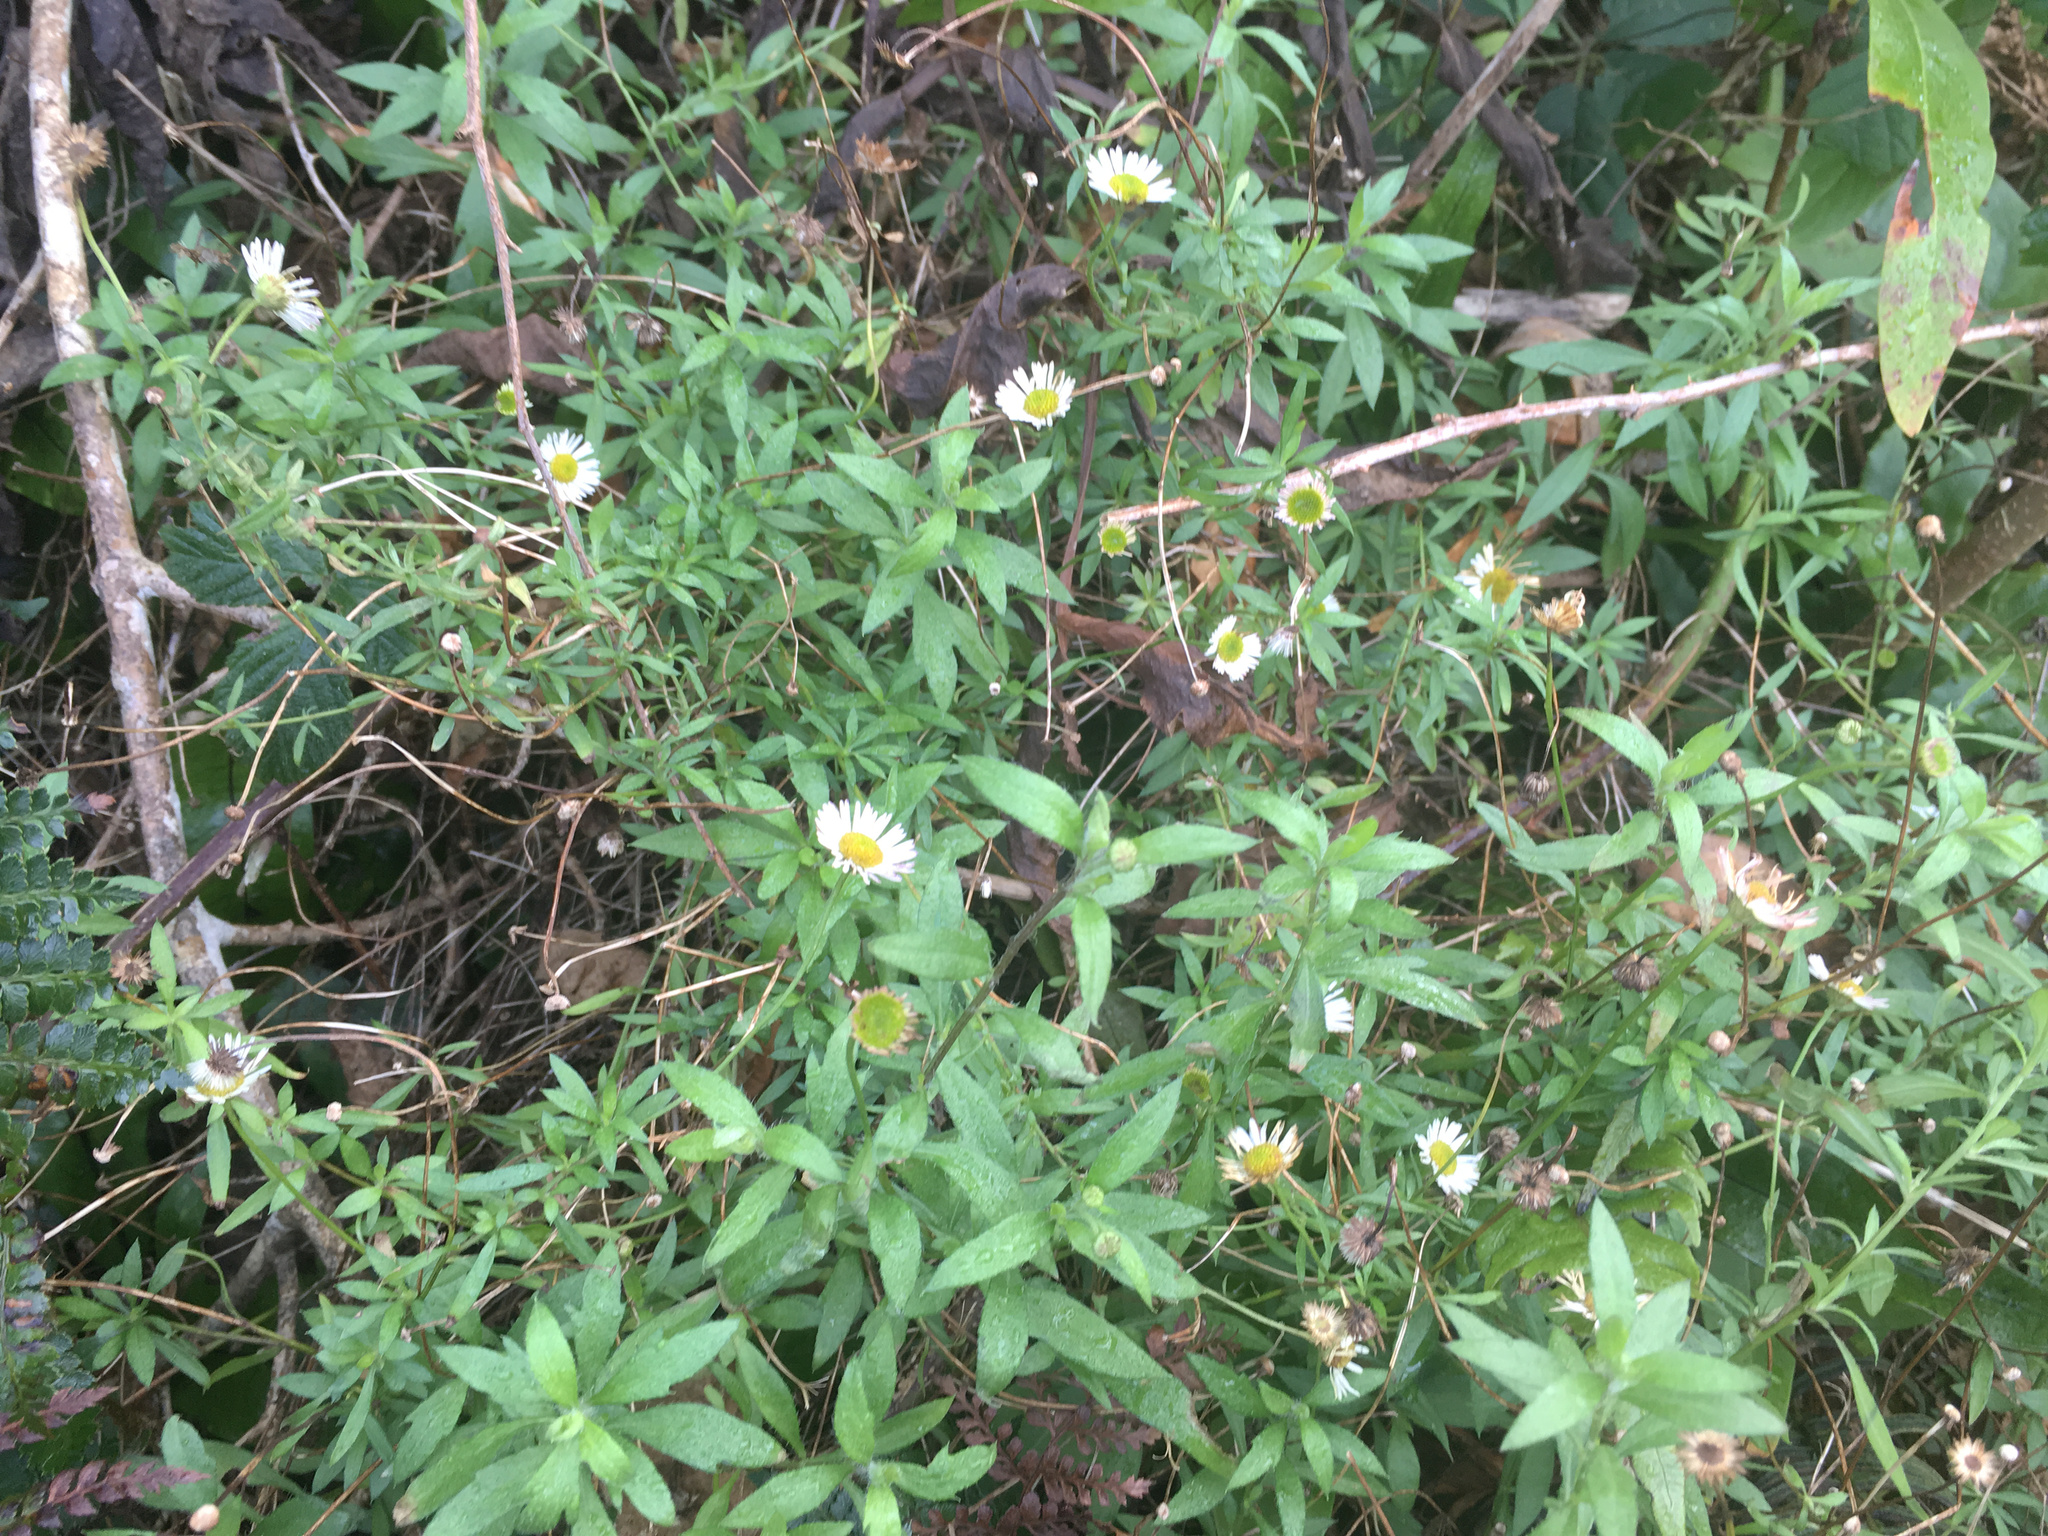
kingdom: Plantae
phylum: Tracheophyta
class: Magnoliopsida
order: Asterales
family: Asteraceae
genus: Erigeron
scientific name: Erigeron karvinskianus
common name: Mexican fleabane
